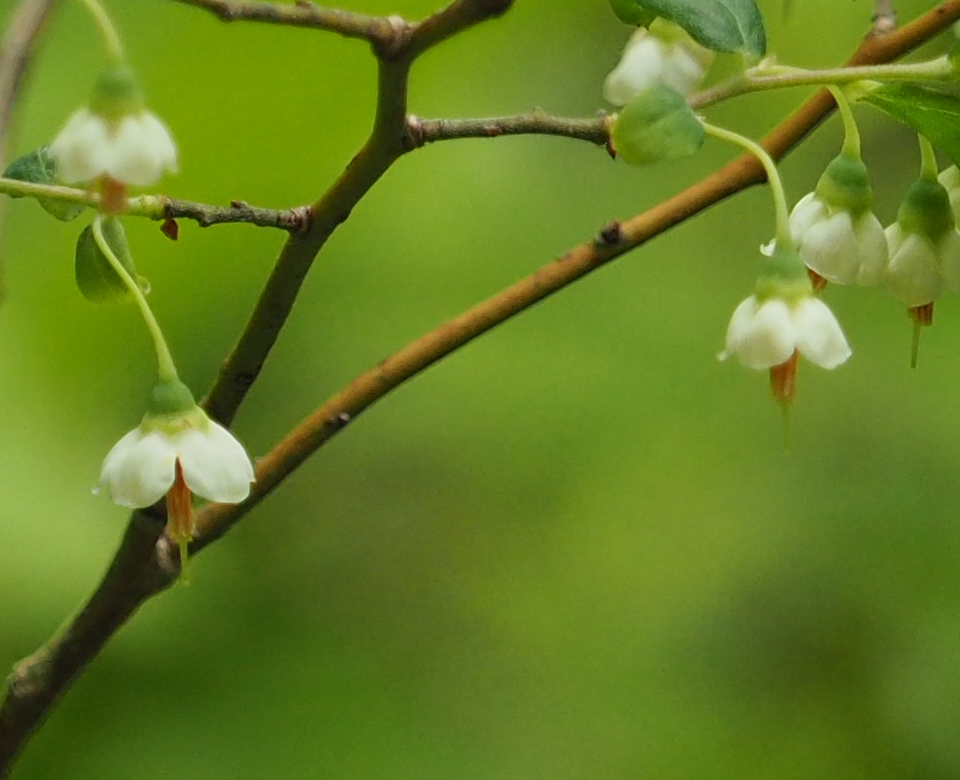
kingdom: Plantae
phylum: Tracheophyta
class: Magnoliopsida
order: Ericales
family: Ericaceae
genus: Vaccinium
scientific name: Vaccinium stamineum
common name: Deerberry
